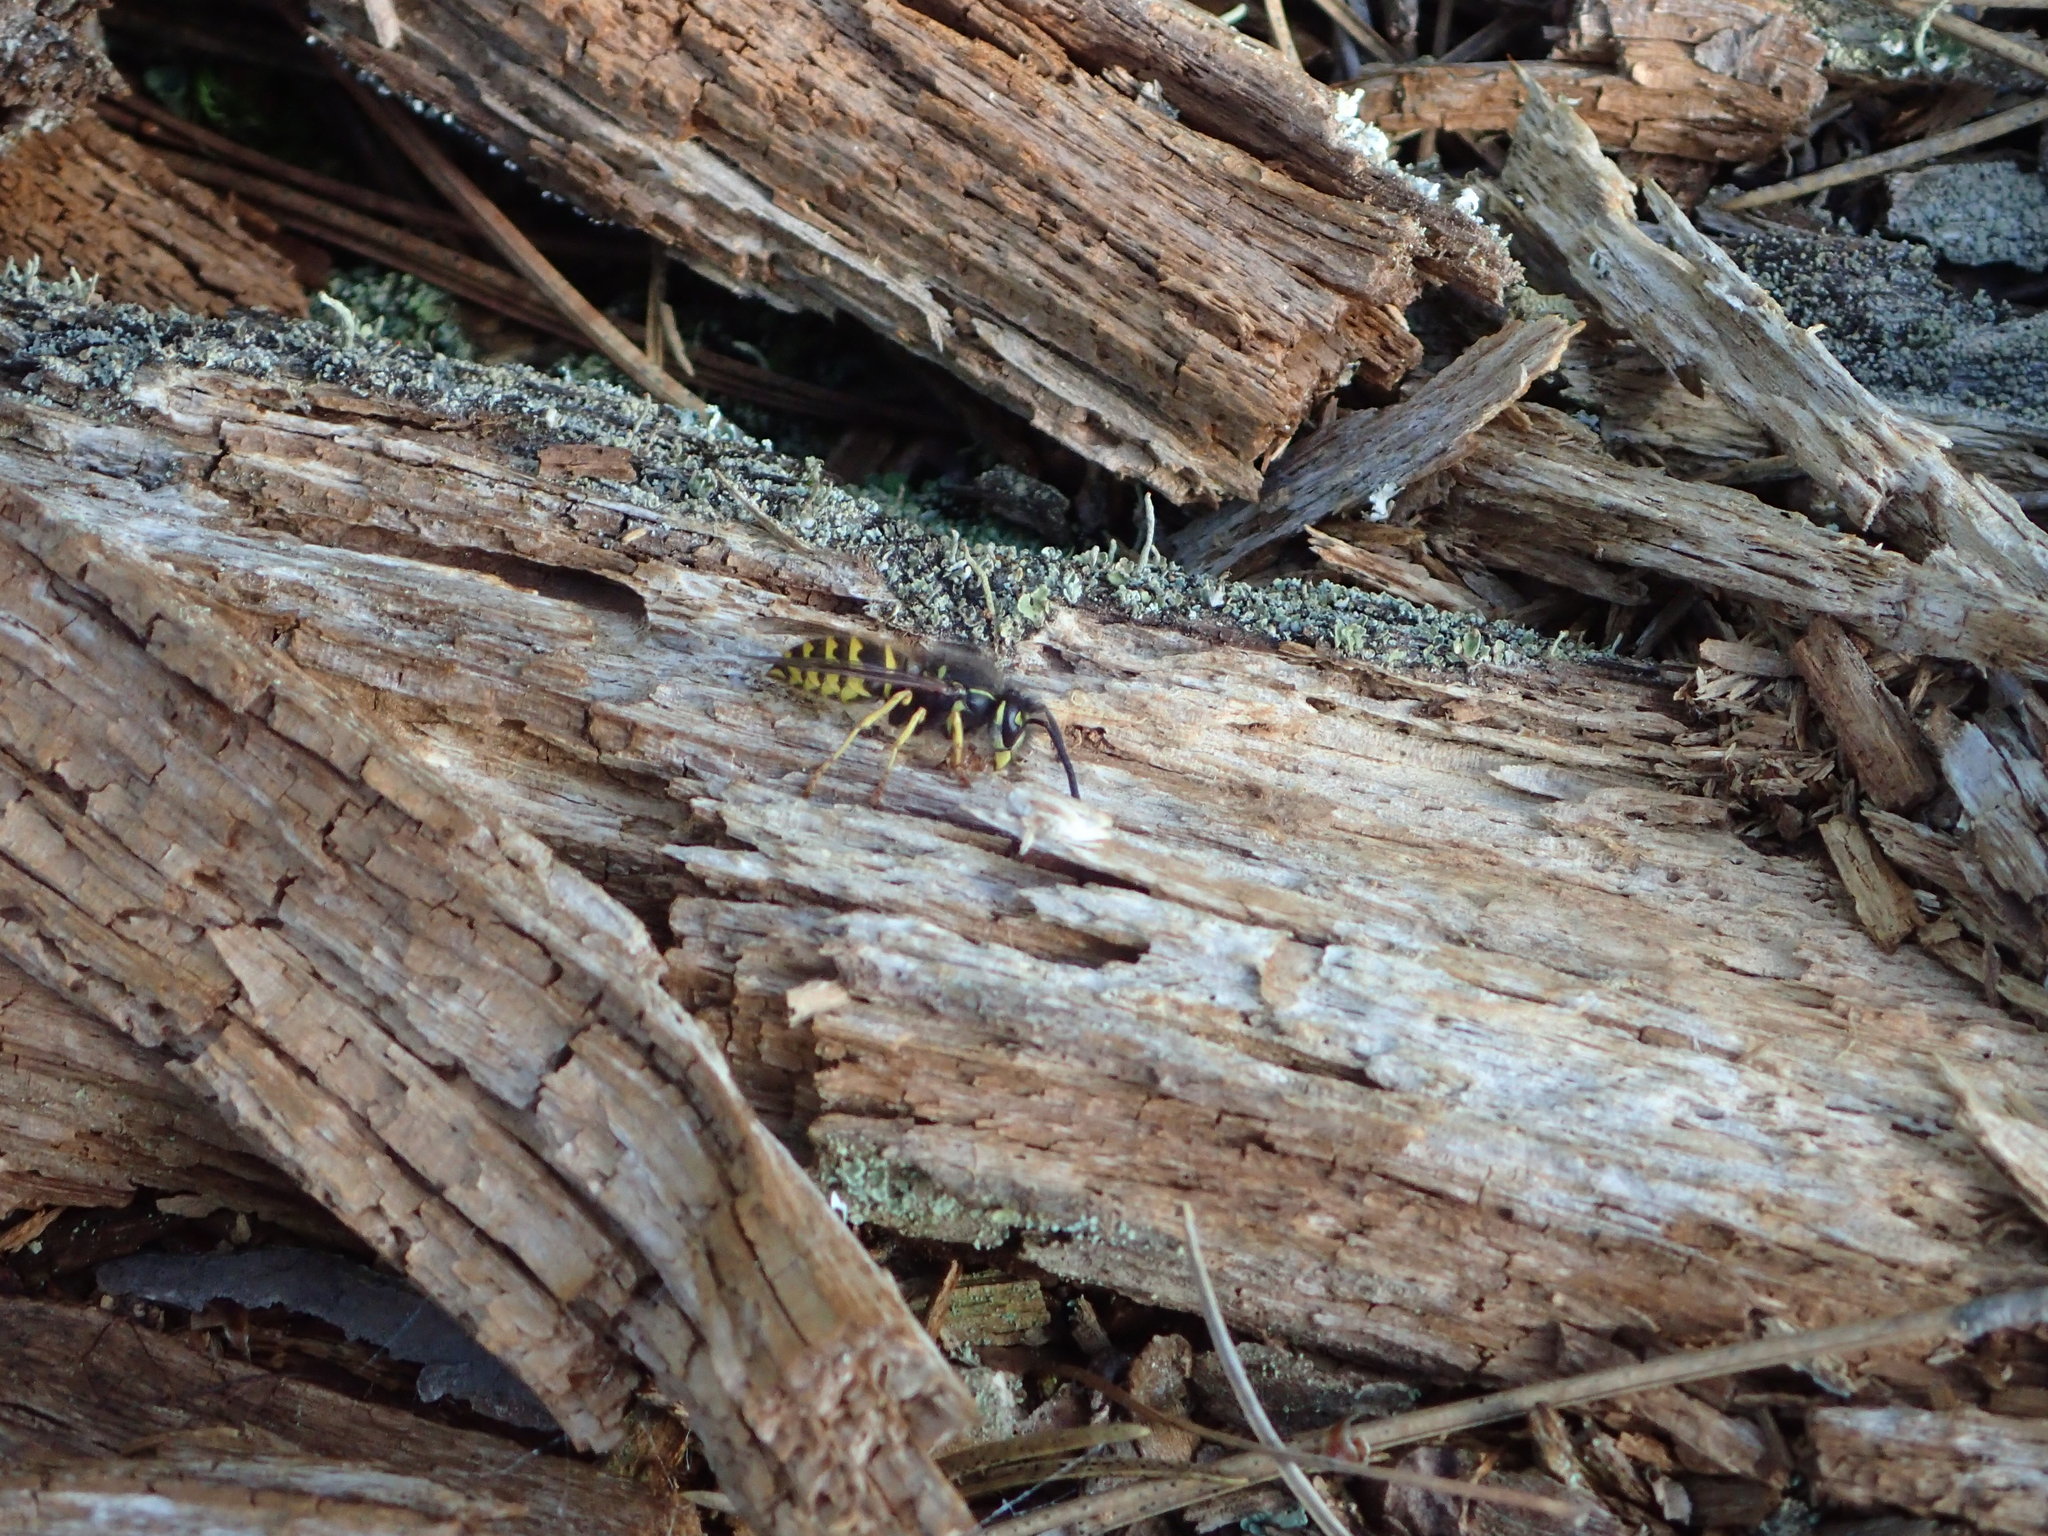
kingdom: Animalia
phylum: Arthropoda
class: Insecta
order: Hymenoptera
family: Vespidae
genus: Vespula
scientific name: Vespula alascensis
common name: Alaska yellowjacket
